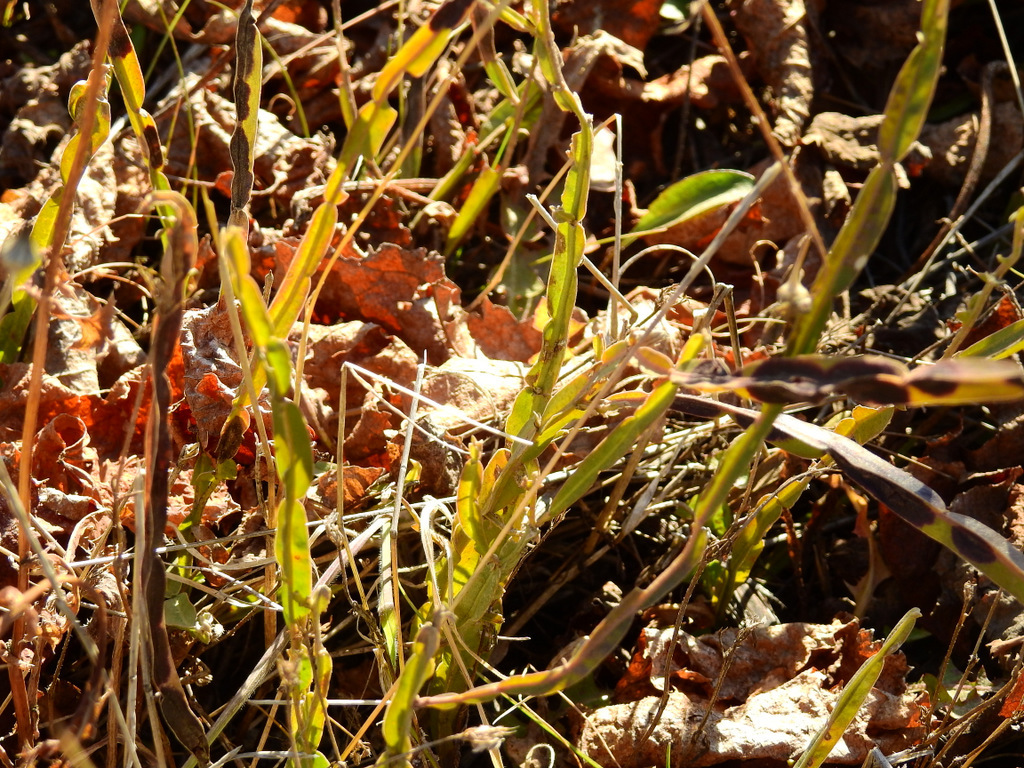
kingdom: Plantae
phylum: Tracheophyta
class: Magnoliopsida
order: Asterales
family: Asteraceae
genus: Baccharis
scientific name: Baccharis trimera
